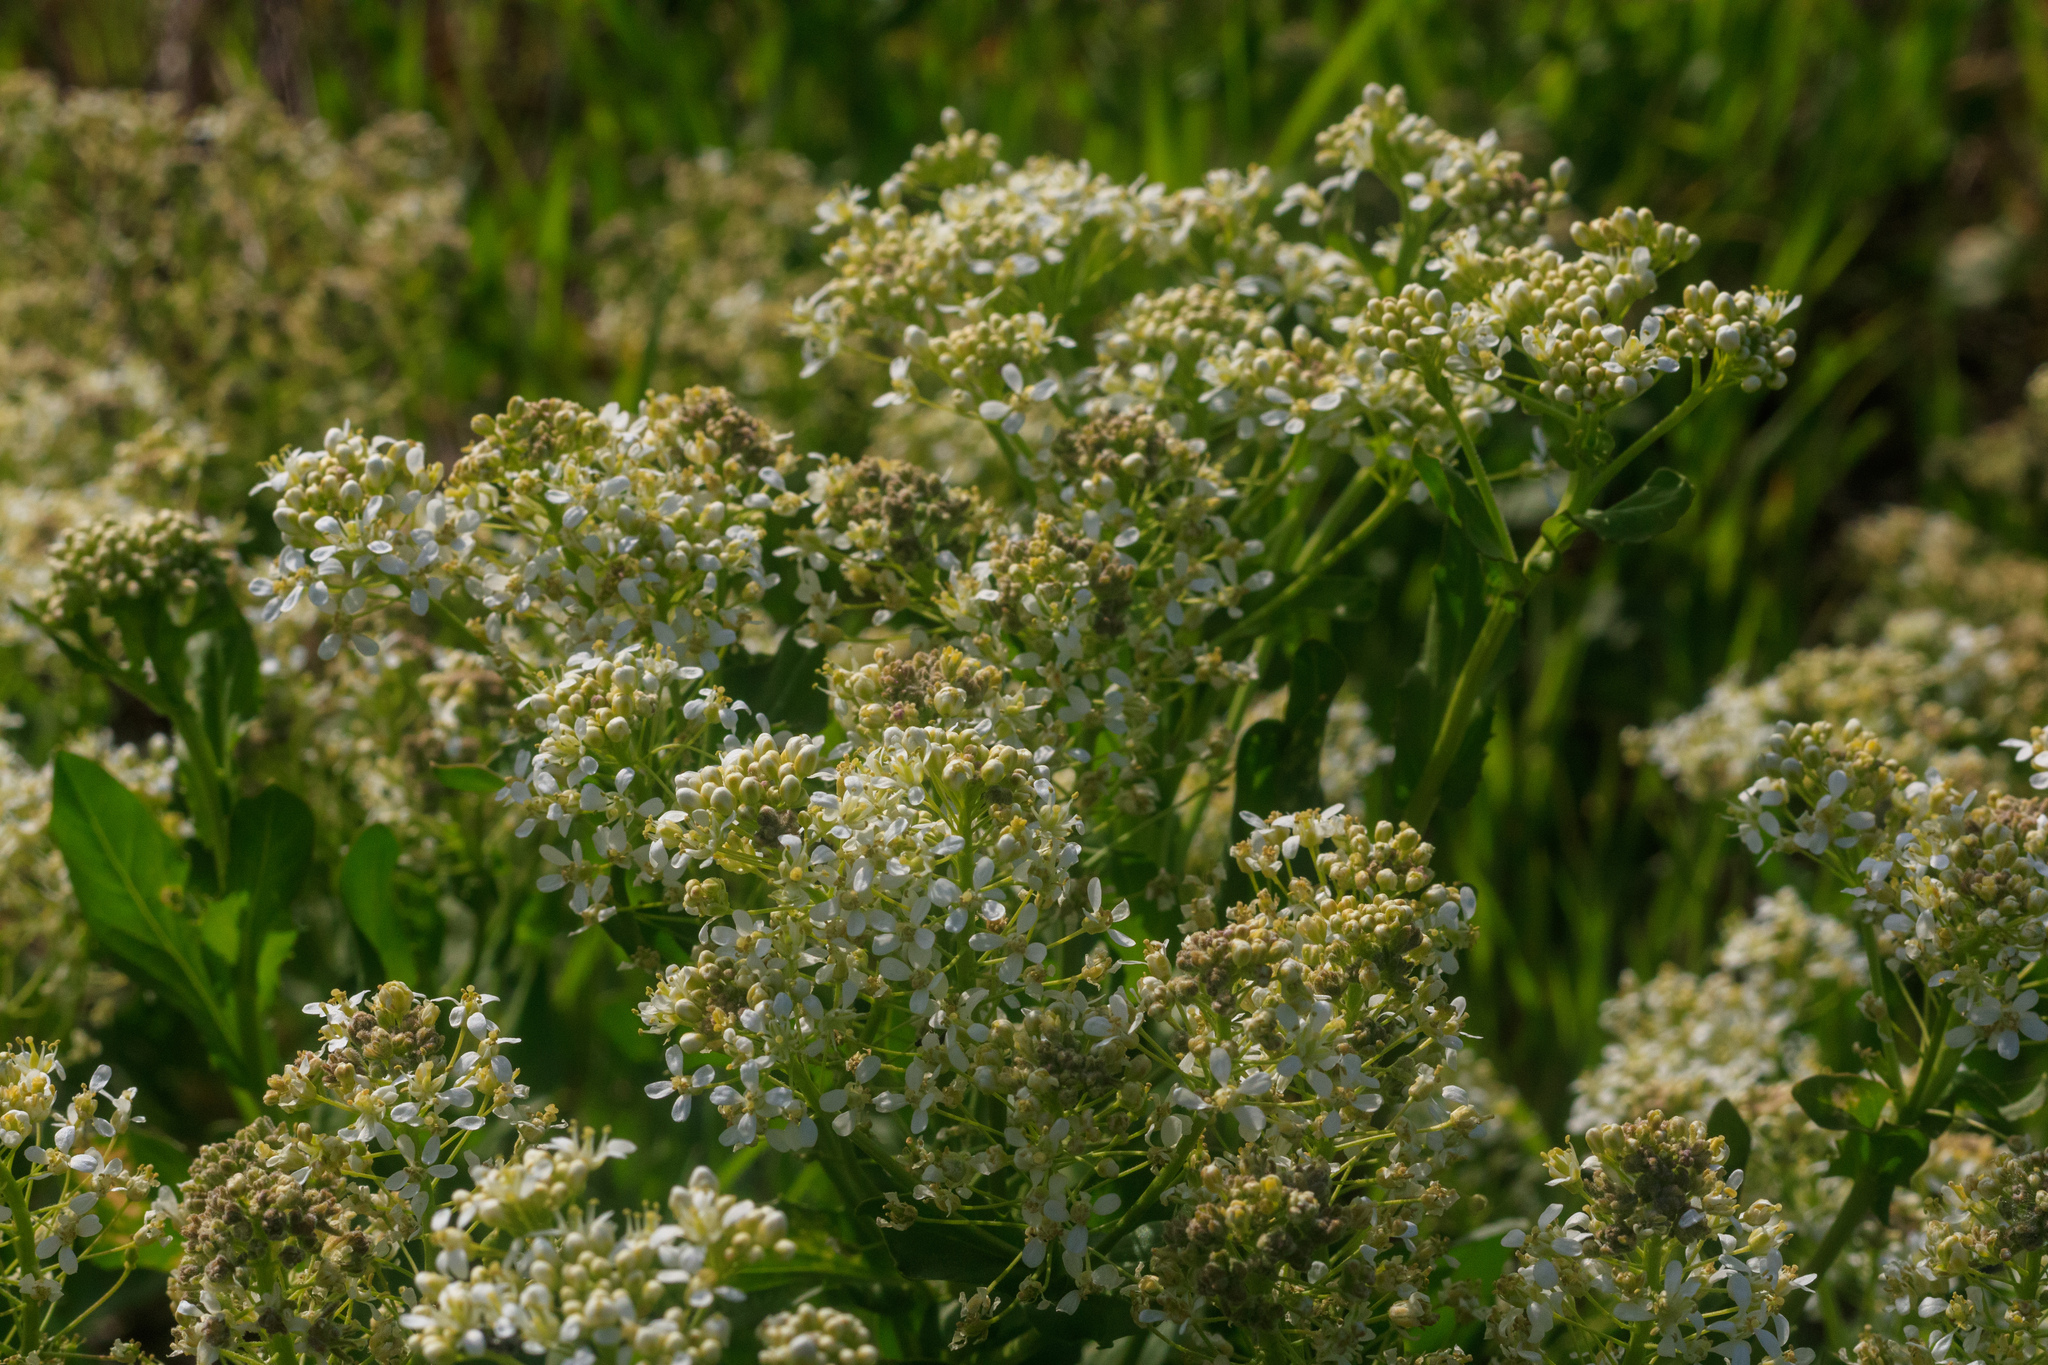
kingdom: Plantae
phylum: Tracheophyta
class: Magnoliopsida
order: Brassicales
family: Brassicaceae
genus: Lepidium
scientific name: Lepidium draba
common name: Hoary cress
